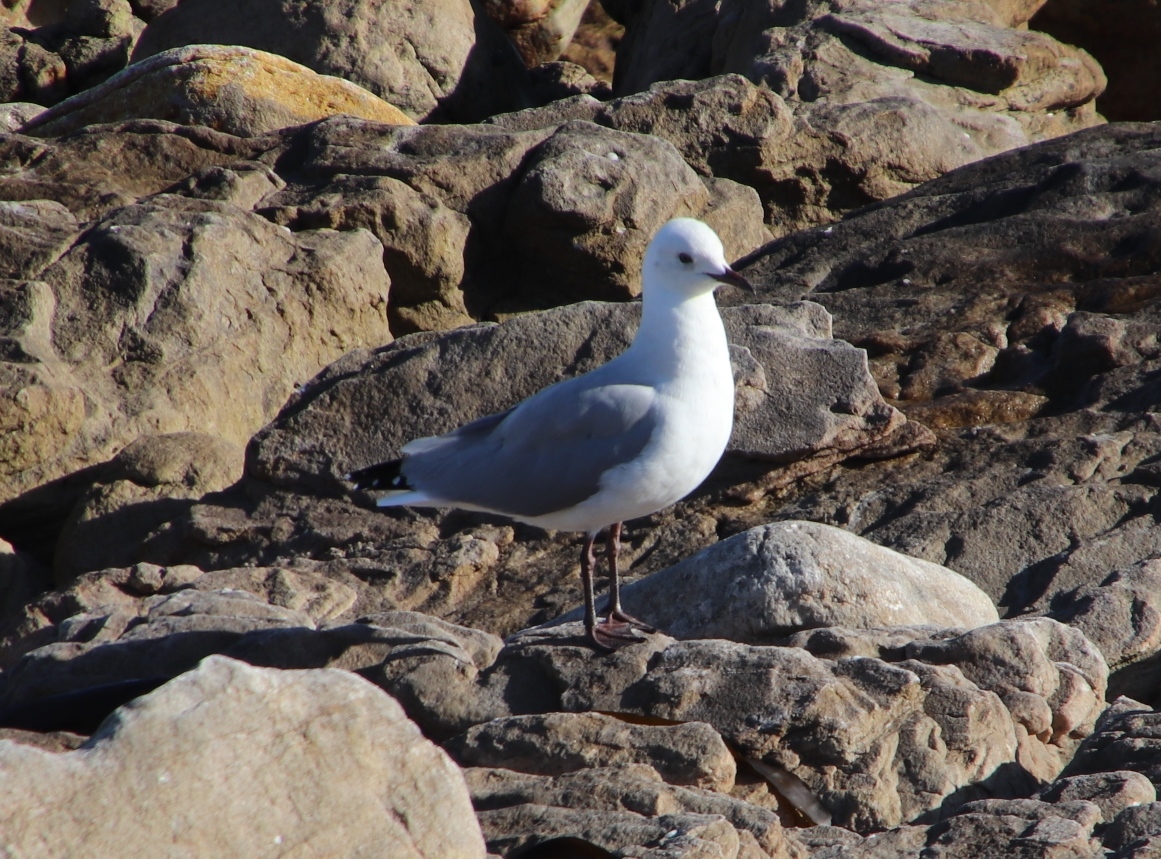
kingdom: Animalia
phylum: Chordata
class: Aves
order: Charadriiformes
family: Laridae
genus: Chroicocephalus
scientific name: Chroicocephalus hartlaubii
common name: Hartlaub's gull
